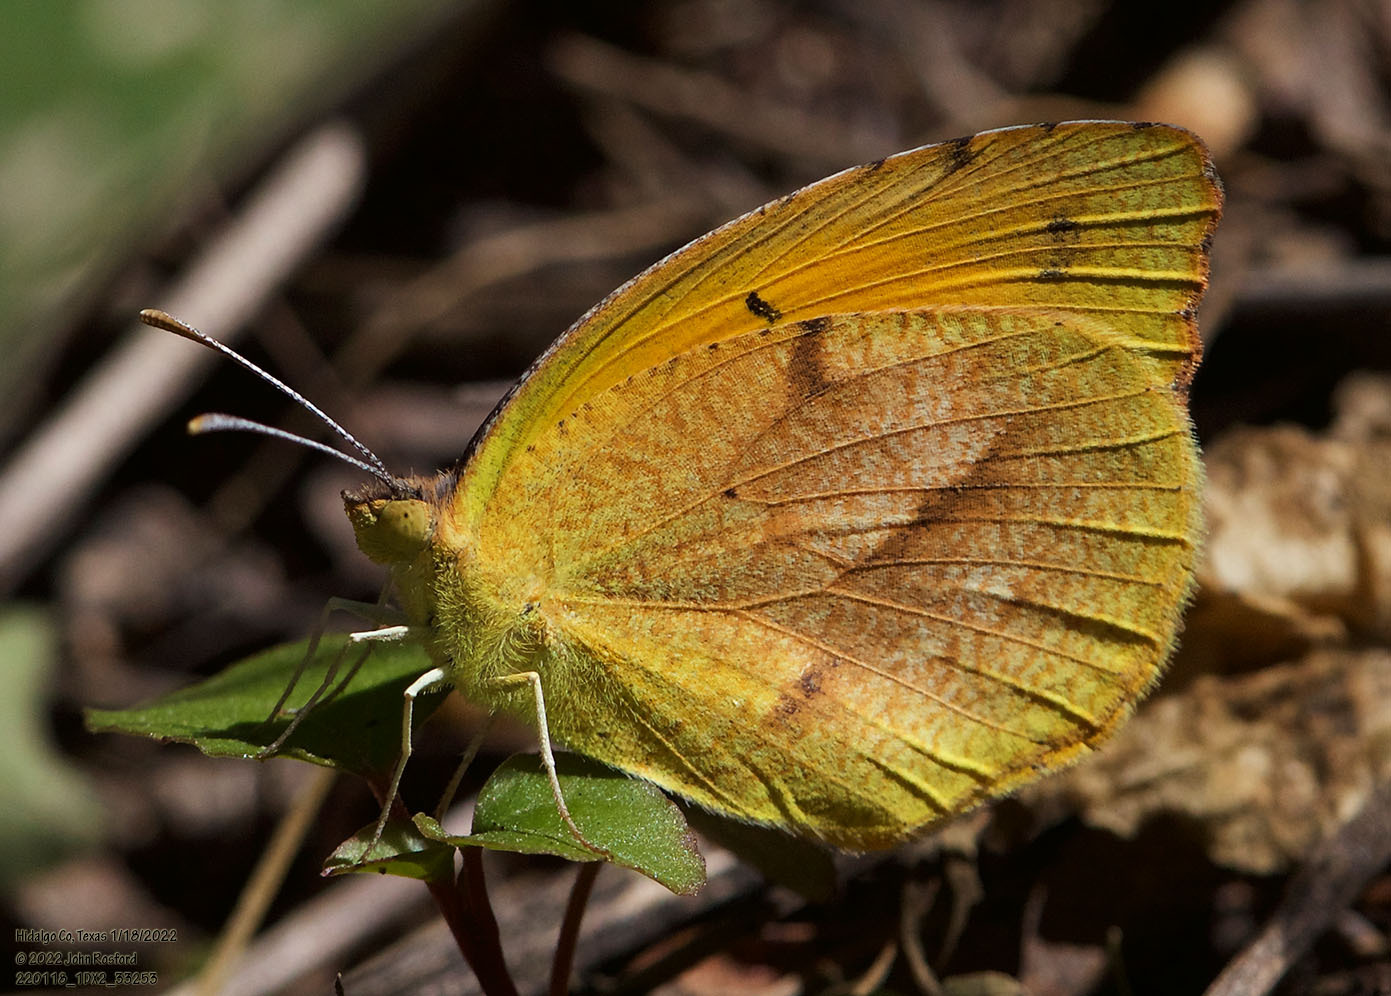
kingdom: Animalia
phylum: Arthropoda
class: Insecta
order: Lepidoptera
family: Pieridae
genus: Abaeis
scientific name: Abaeis nicippe
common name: Sleepy orange
